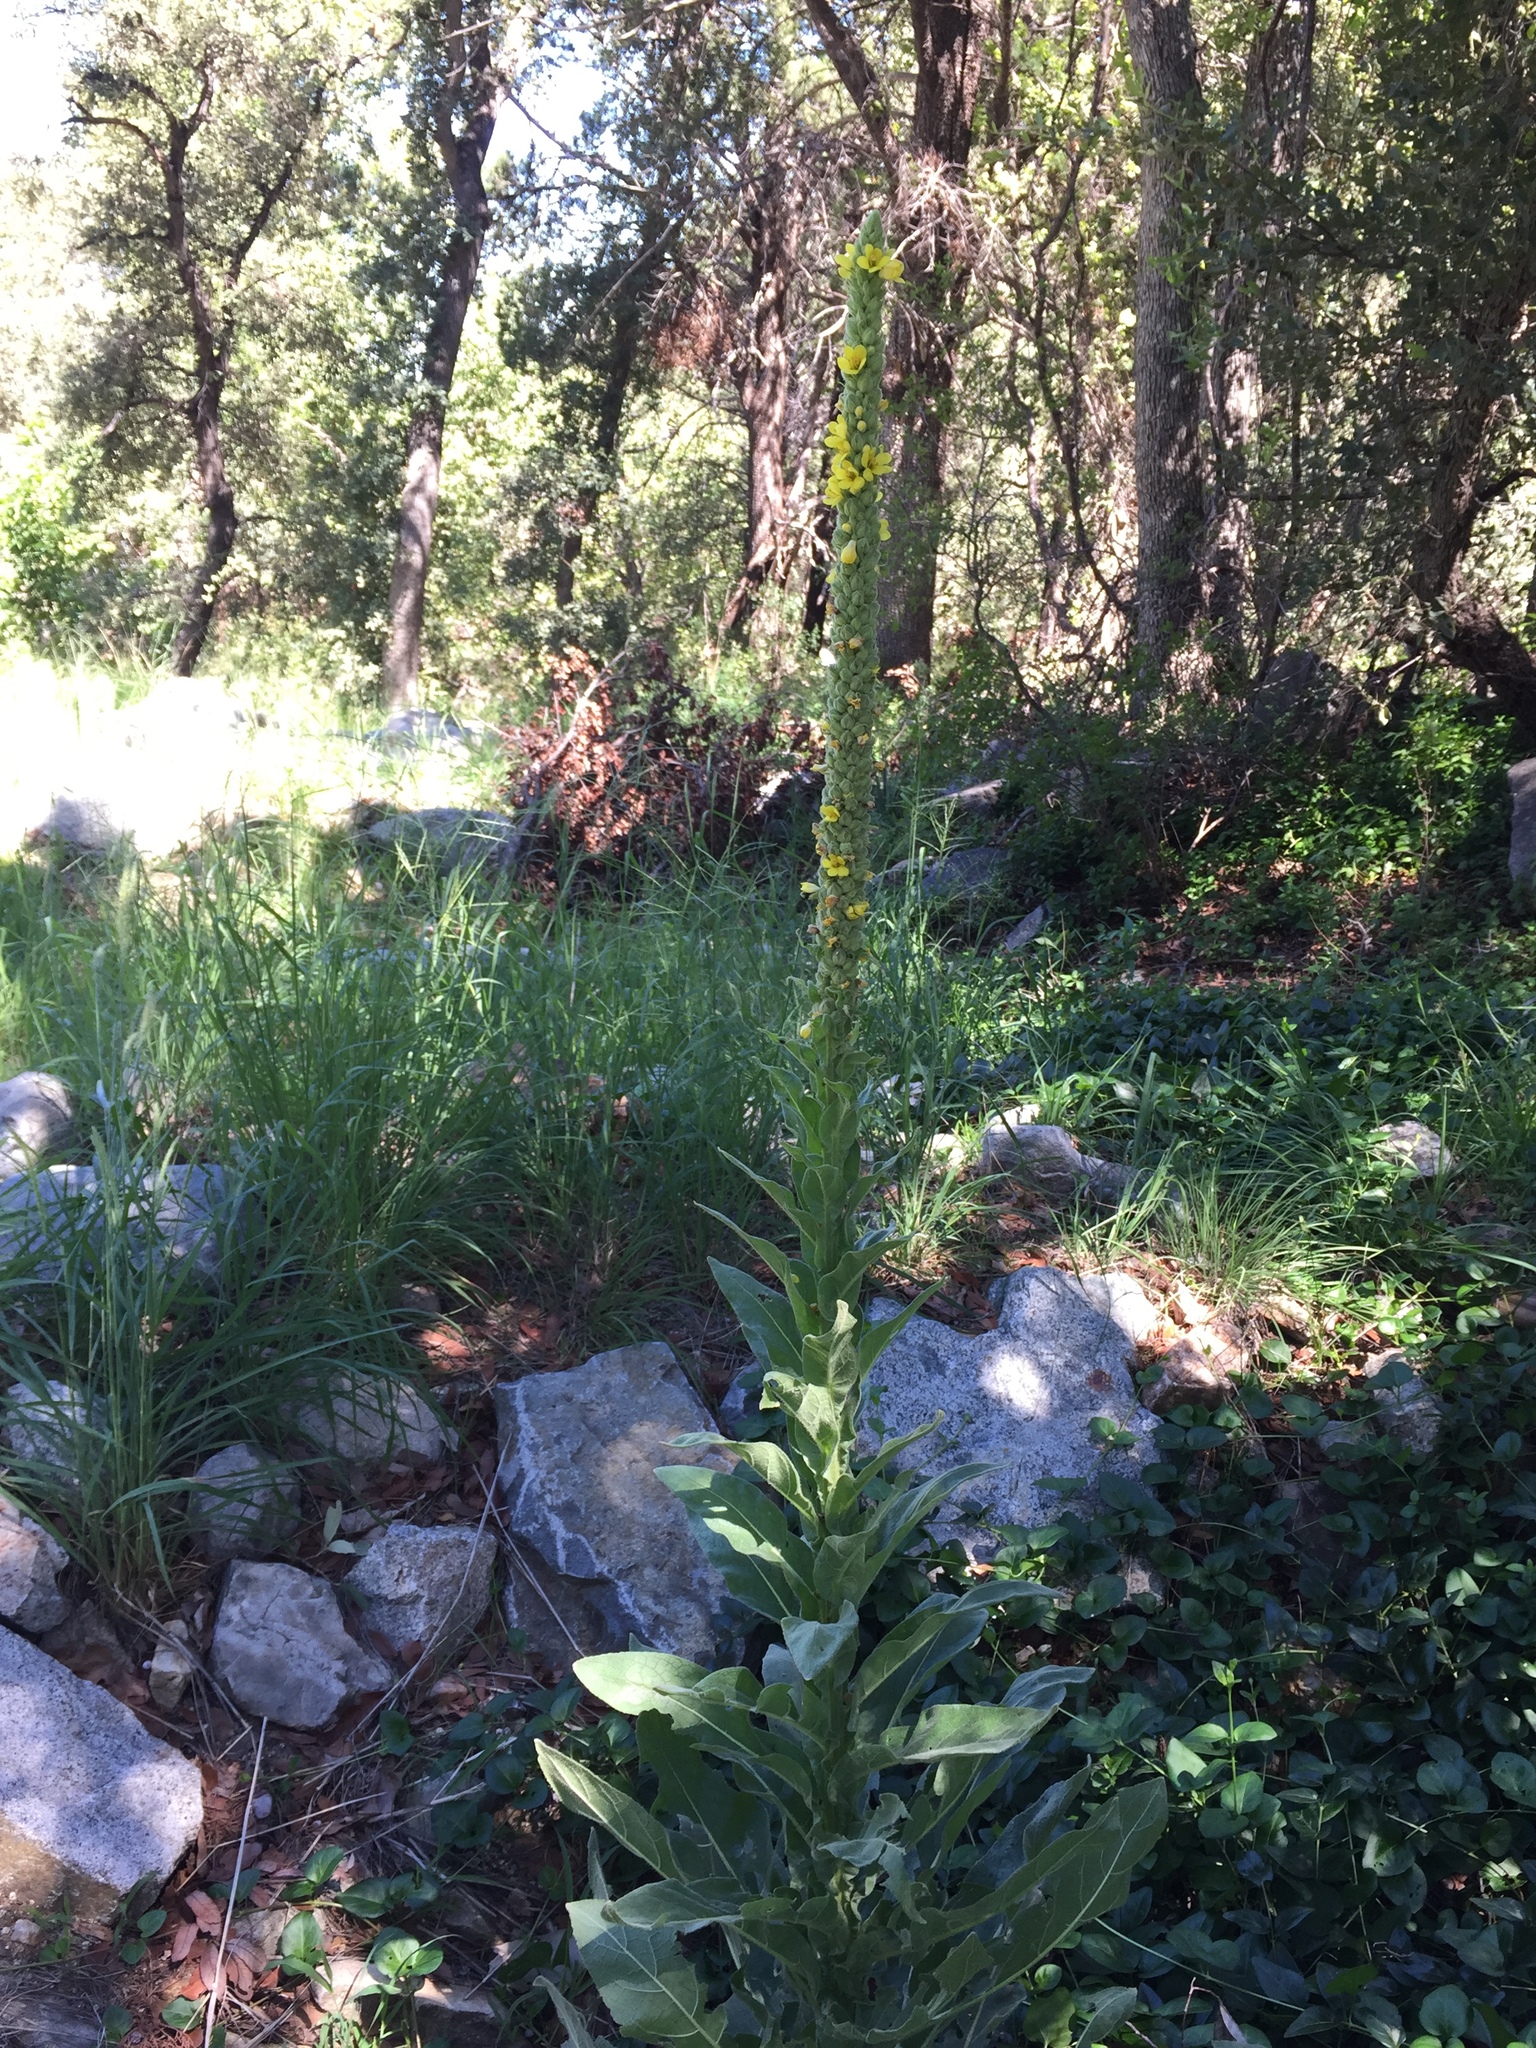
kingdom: Plantae
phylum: Tracheophyta
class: Magnoliopsida
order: Lamiales
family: Scrophulariaceae
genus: Verbascum
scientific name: Verbascum thapsus
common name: Common mullein
